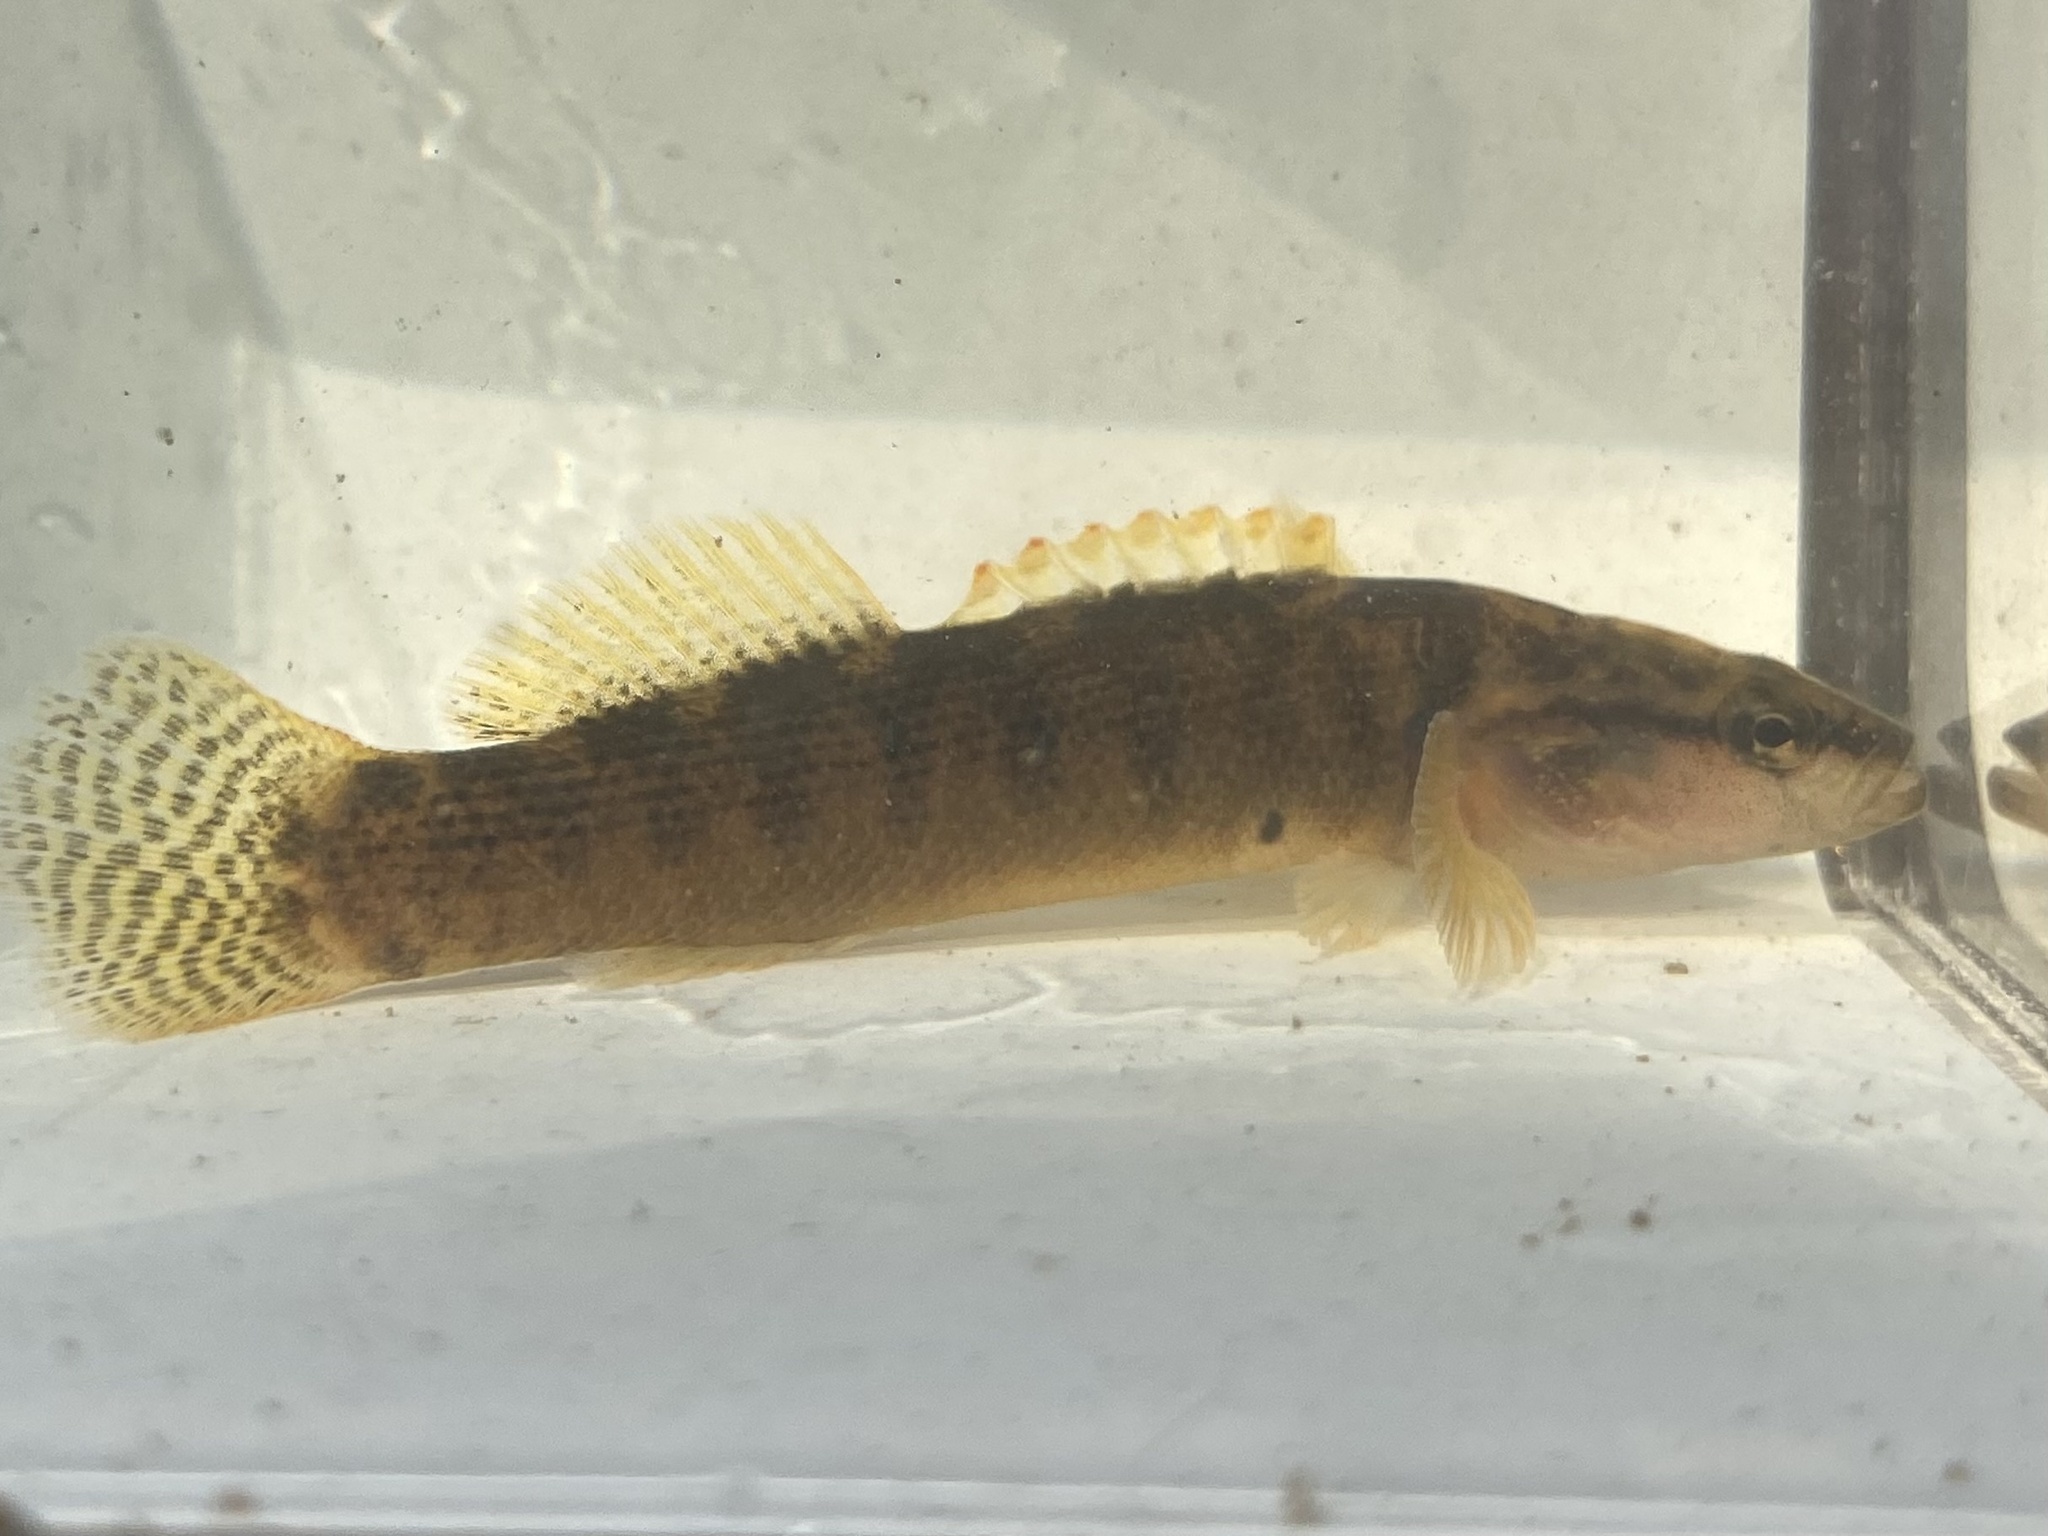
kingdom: Animalia
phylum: Chordata
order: Perciformes
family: Percidae
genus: Etheostoma
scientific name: Etheostoma flabellare
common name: Fantail darter
